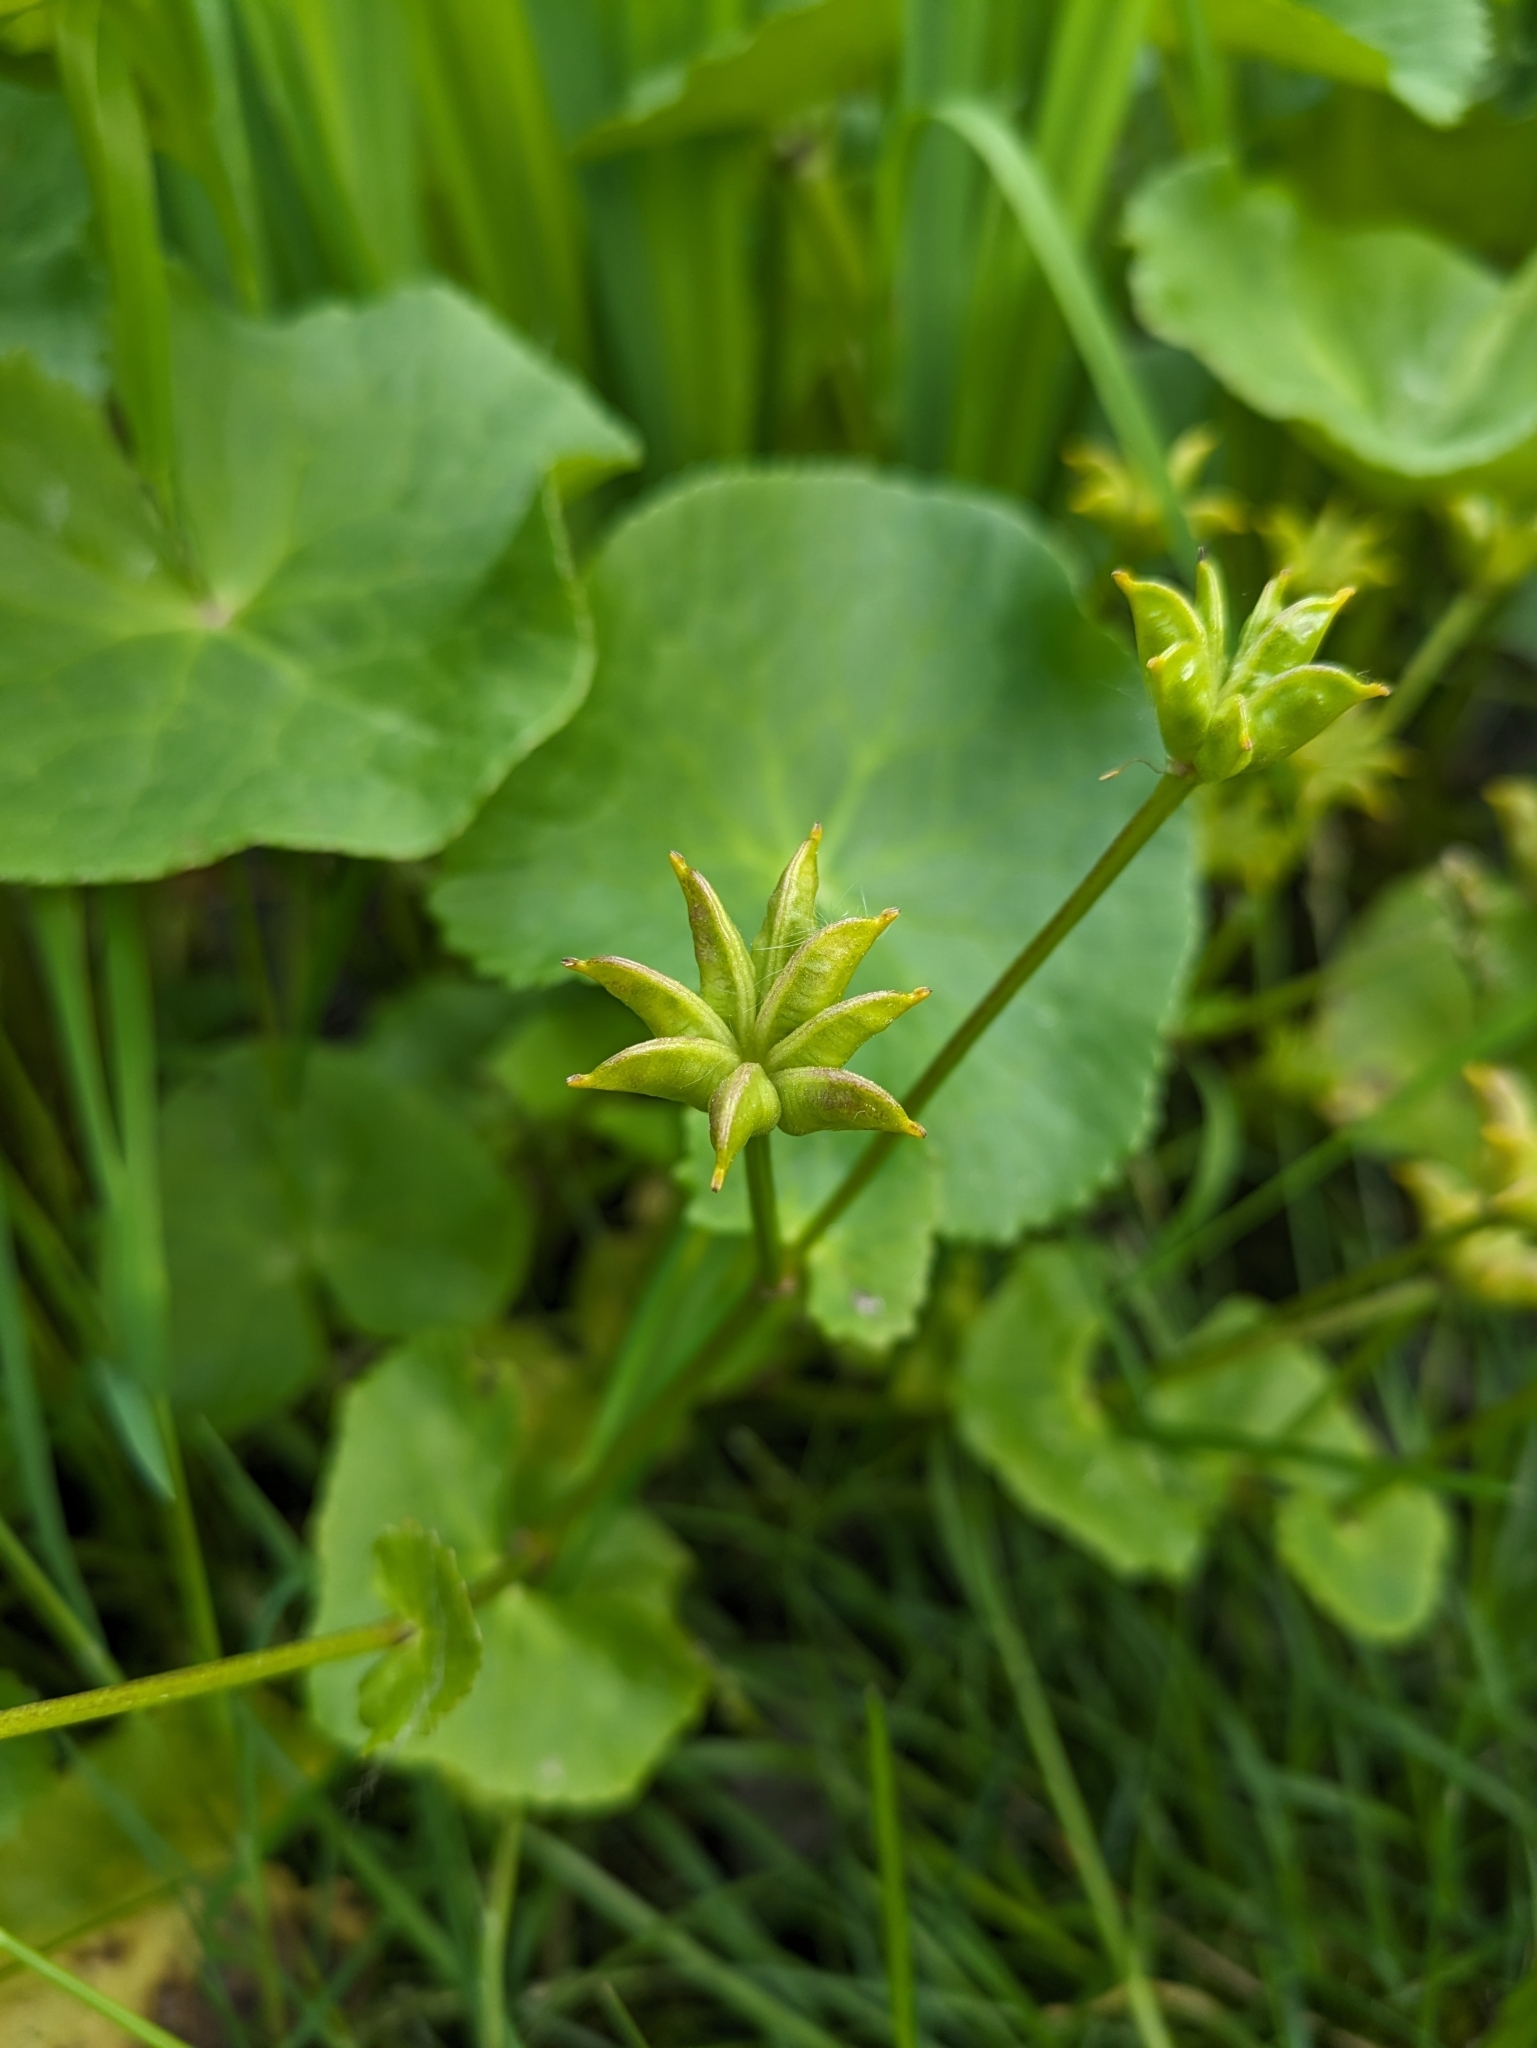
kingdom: Plantae
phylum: Tracheophyta
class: Magnoliopsida
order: Ranunculales
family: Ranunculaceae
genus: Caltha
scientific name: Caltha palustris
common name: Marsh marigold
